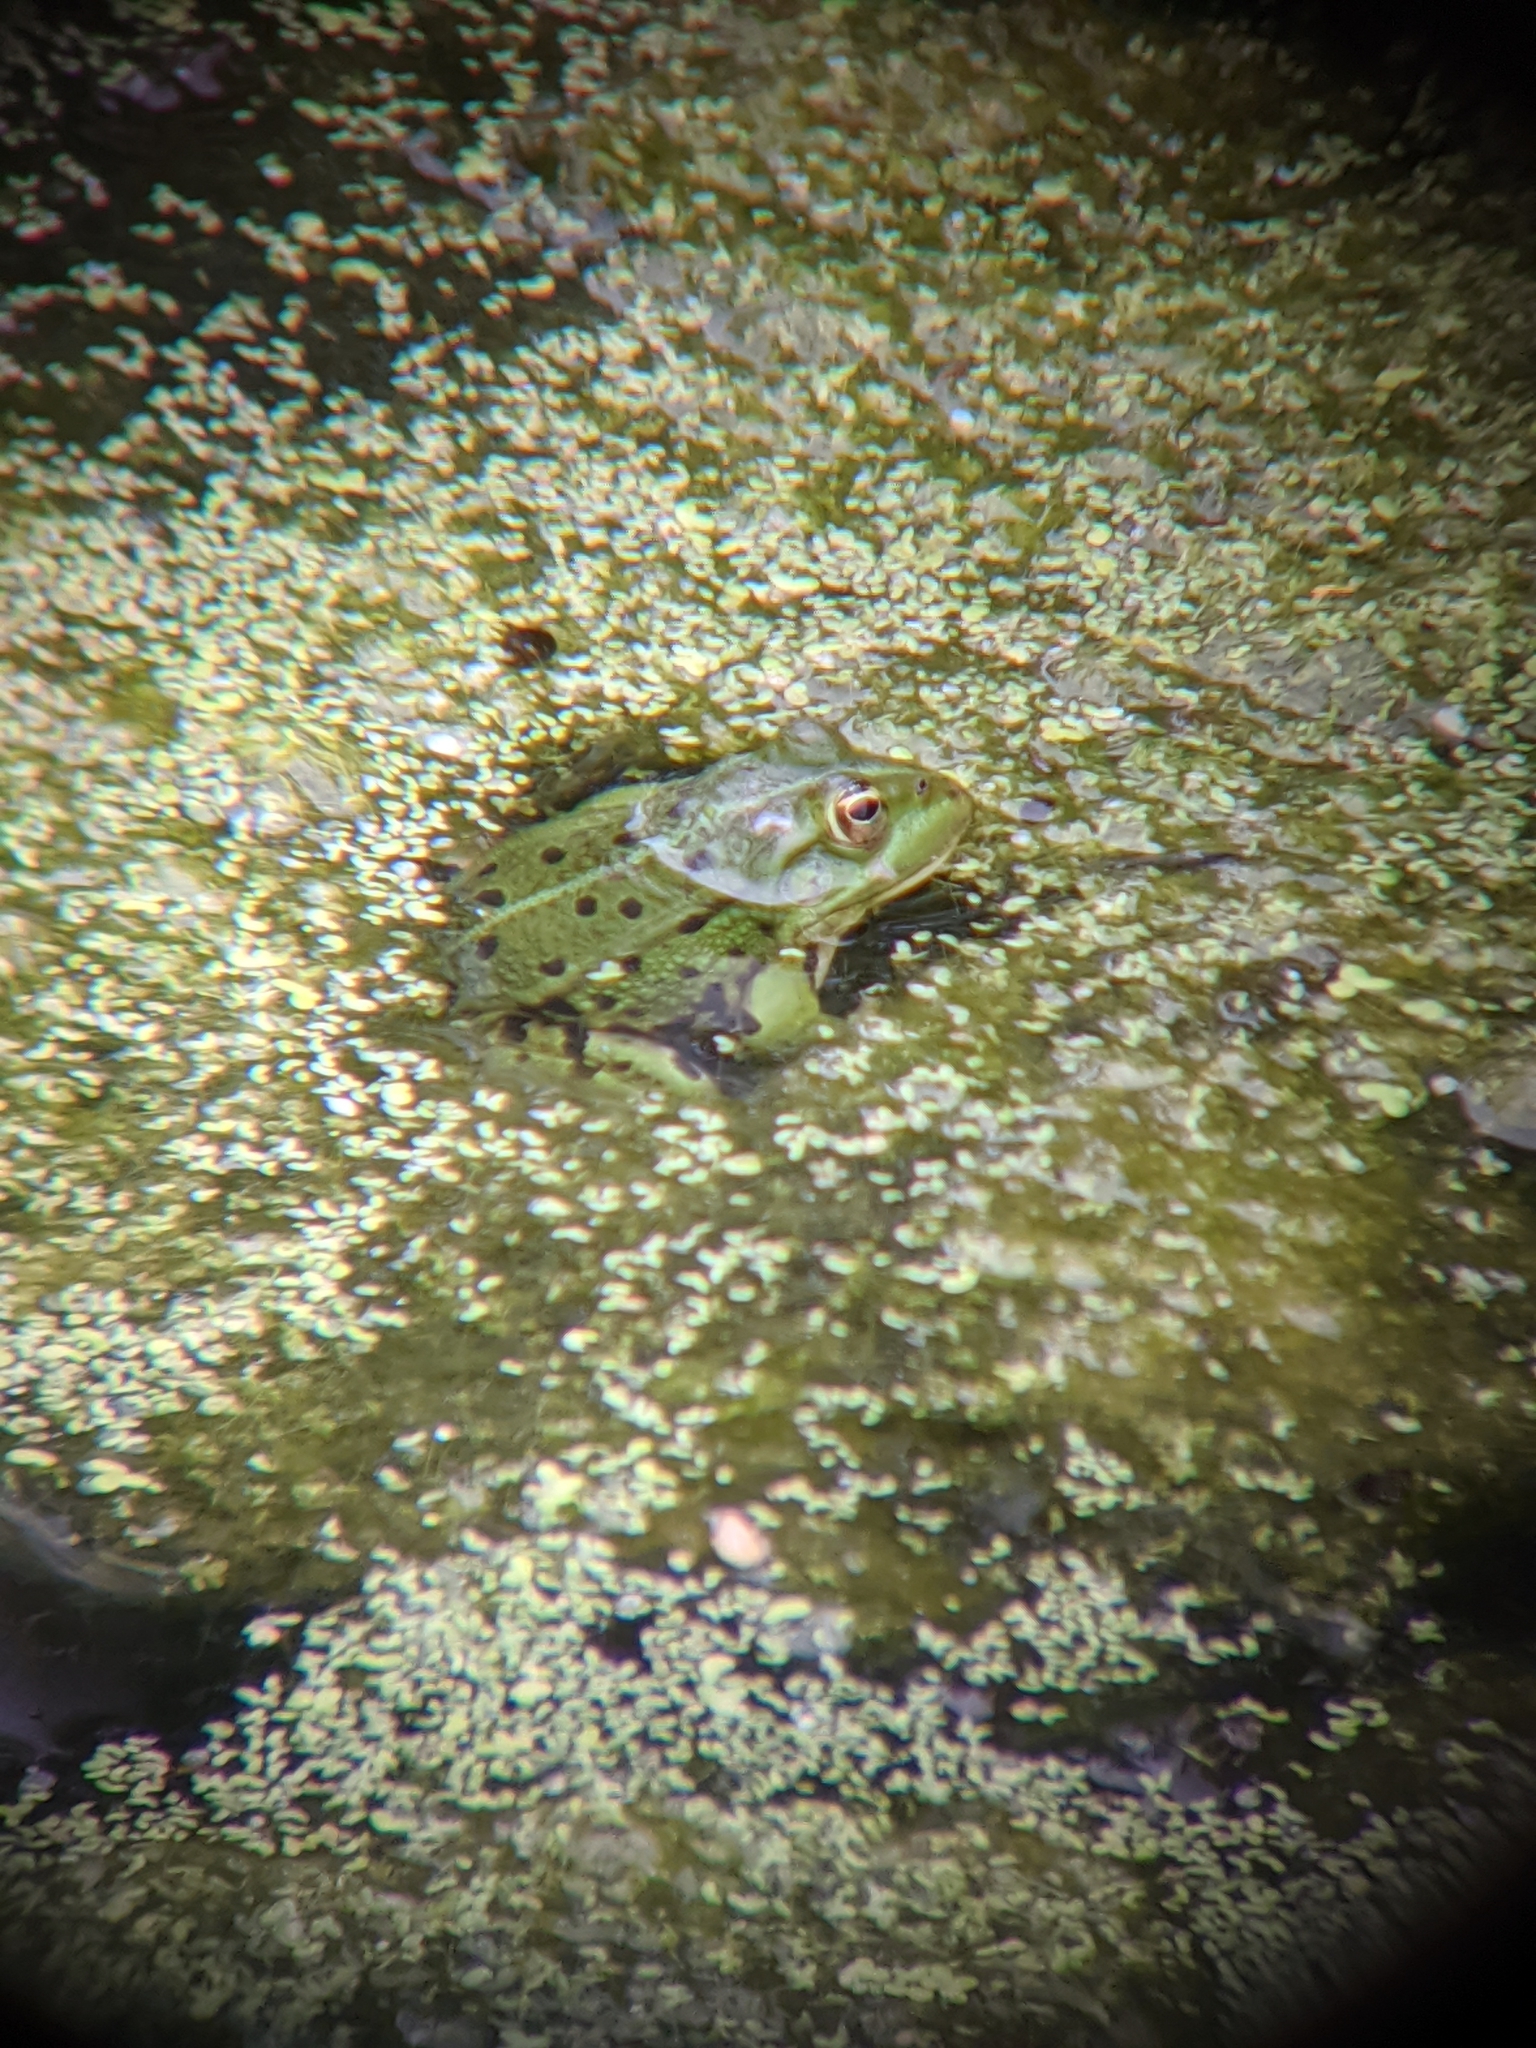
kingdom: Animalia
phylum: Chordata
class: Amphibia
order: Anura
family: Ranidae
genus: Pelophylax
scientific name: Pelophylax
